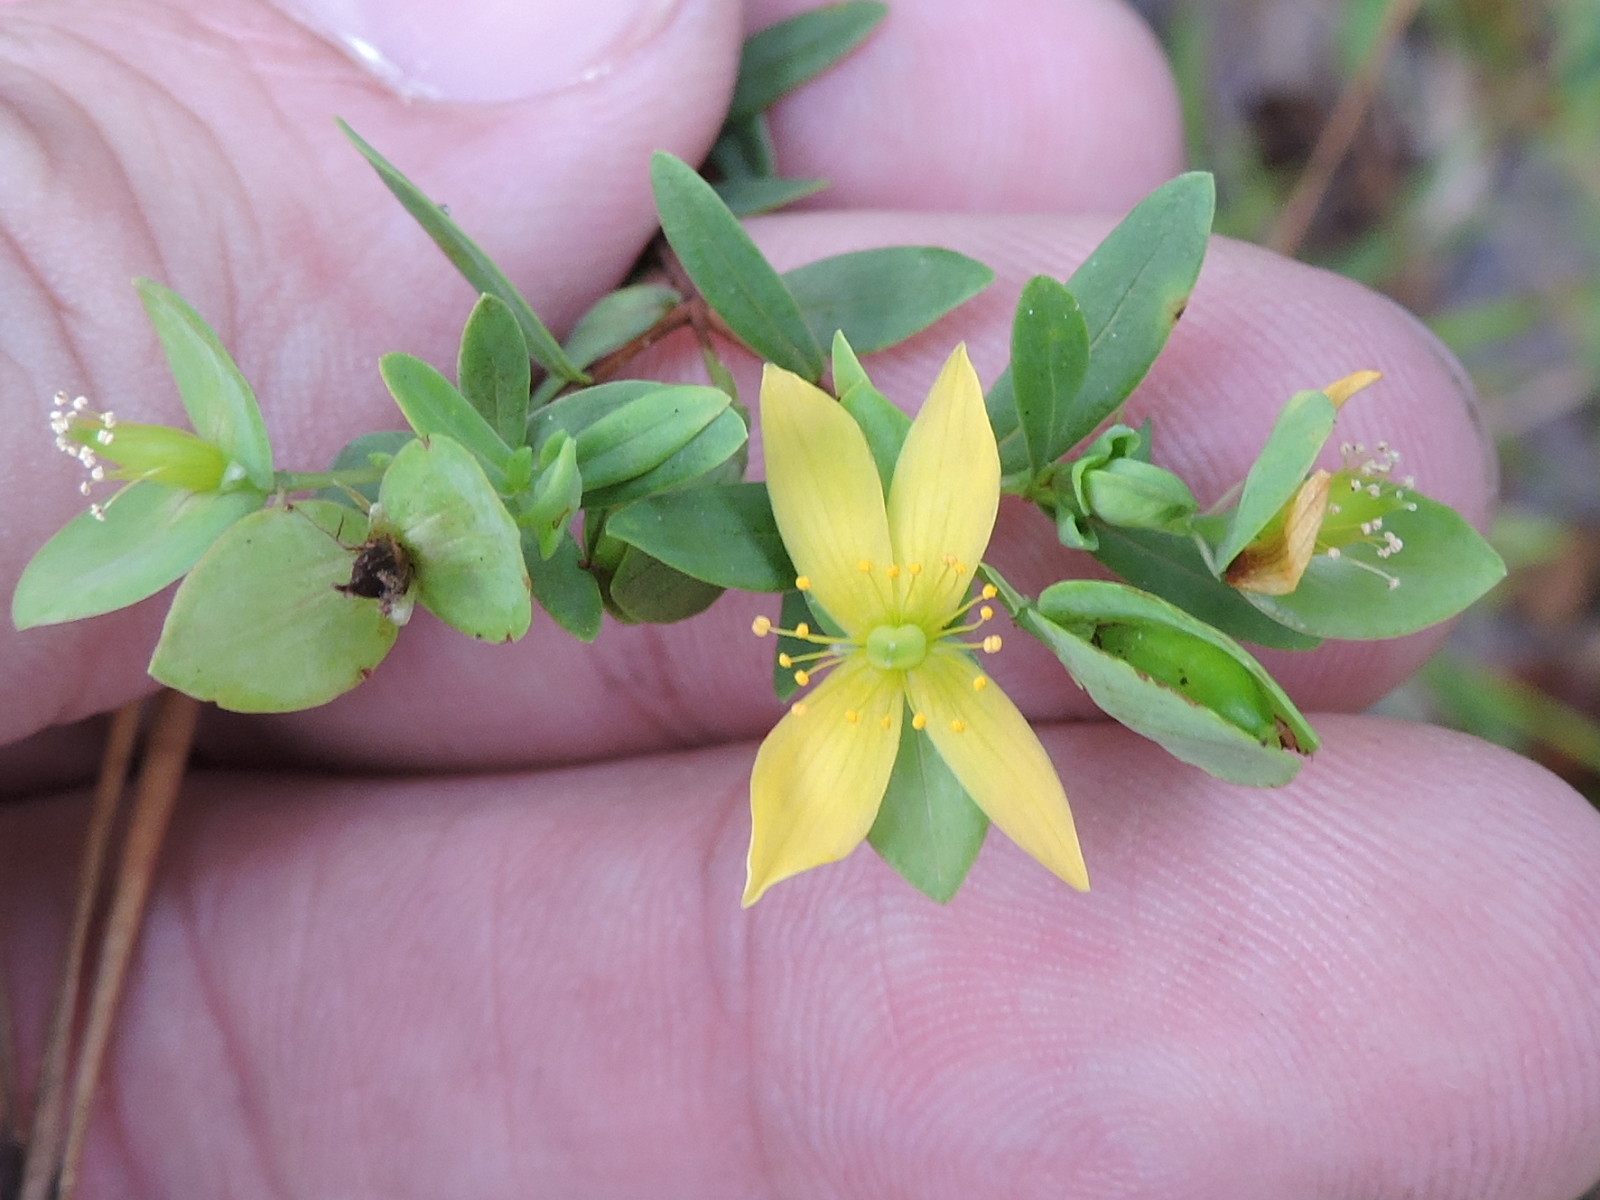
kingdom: Plantae
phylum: Tracheophyta
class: Magnoliopsida
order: Malpighiales
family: Hypericaceae
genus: Hypericum
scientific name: Hypericum hypericoides
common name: St. andrew's cross
